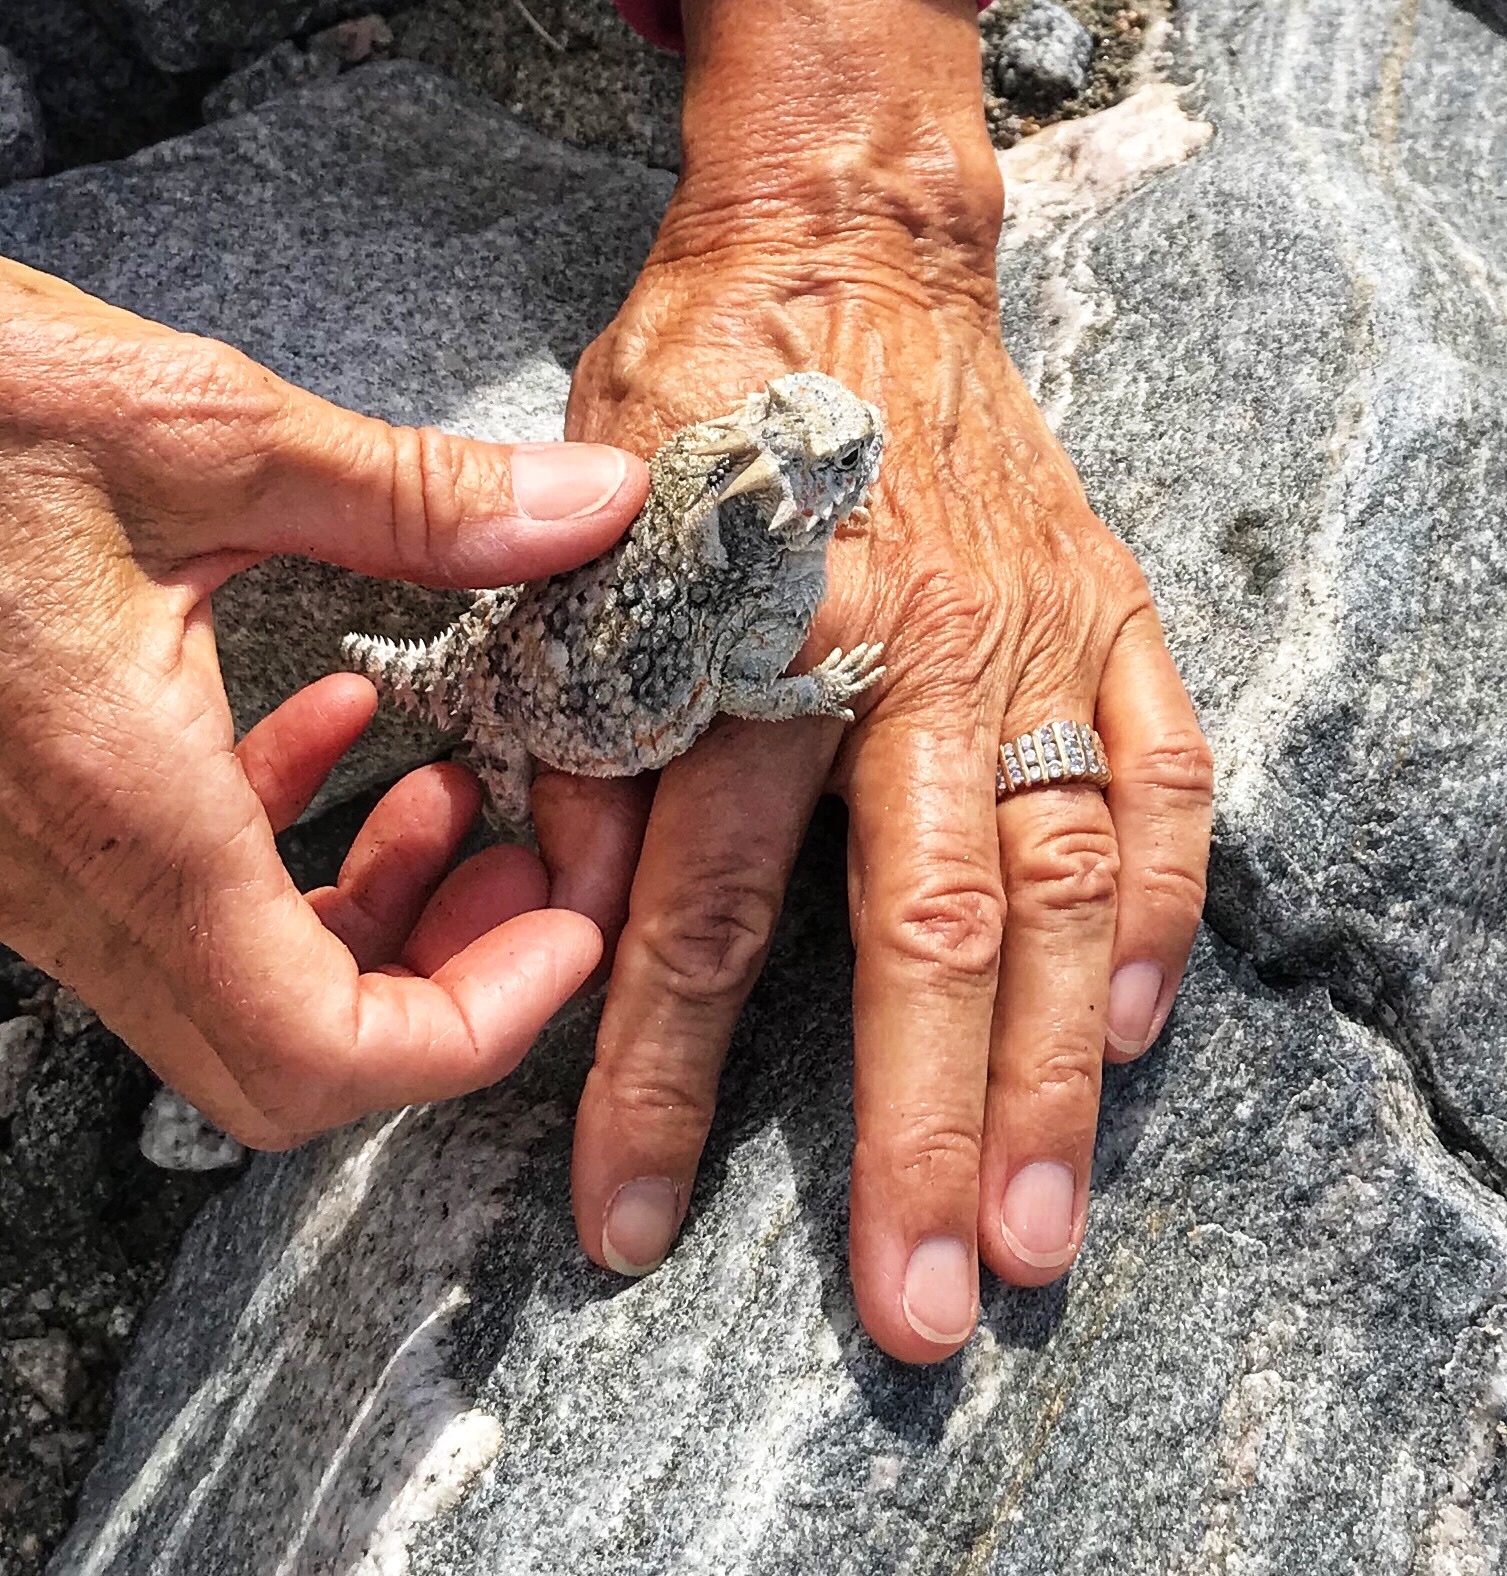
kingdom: Animalia
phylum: Chordata
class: Squamata
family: Phrynosomatidae
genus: Phrynosoma
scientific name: Phrynosoma platyrhinos
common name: Desert horned lizard
